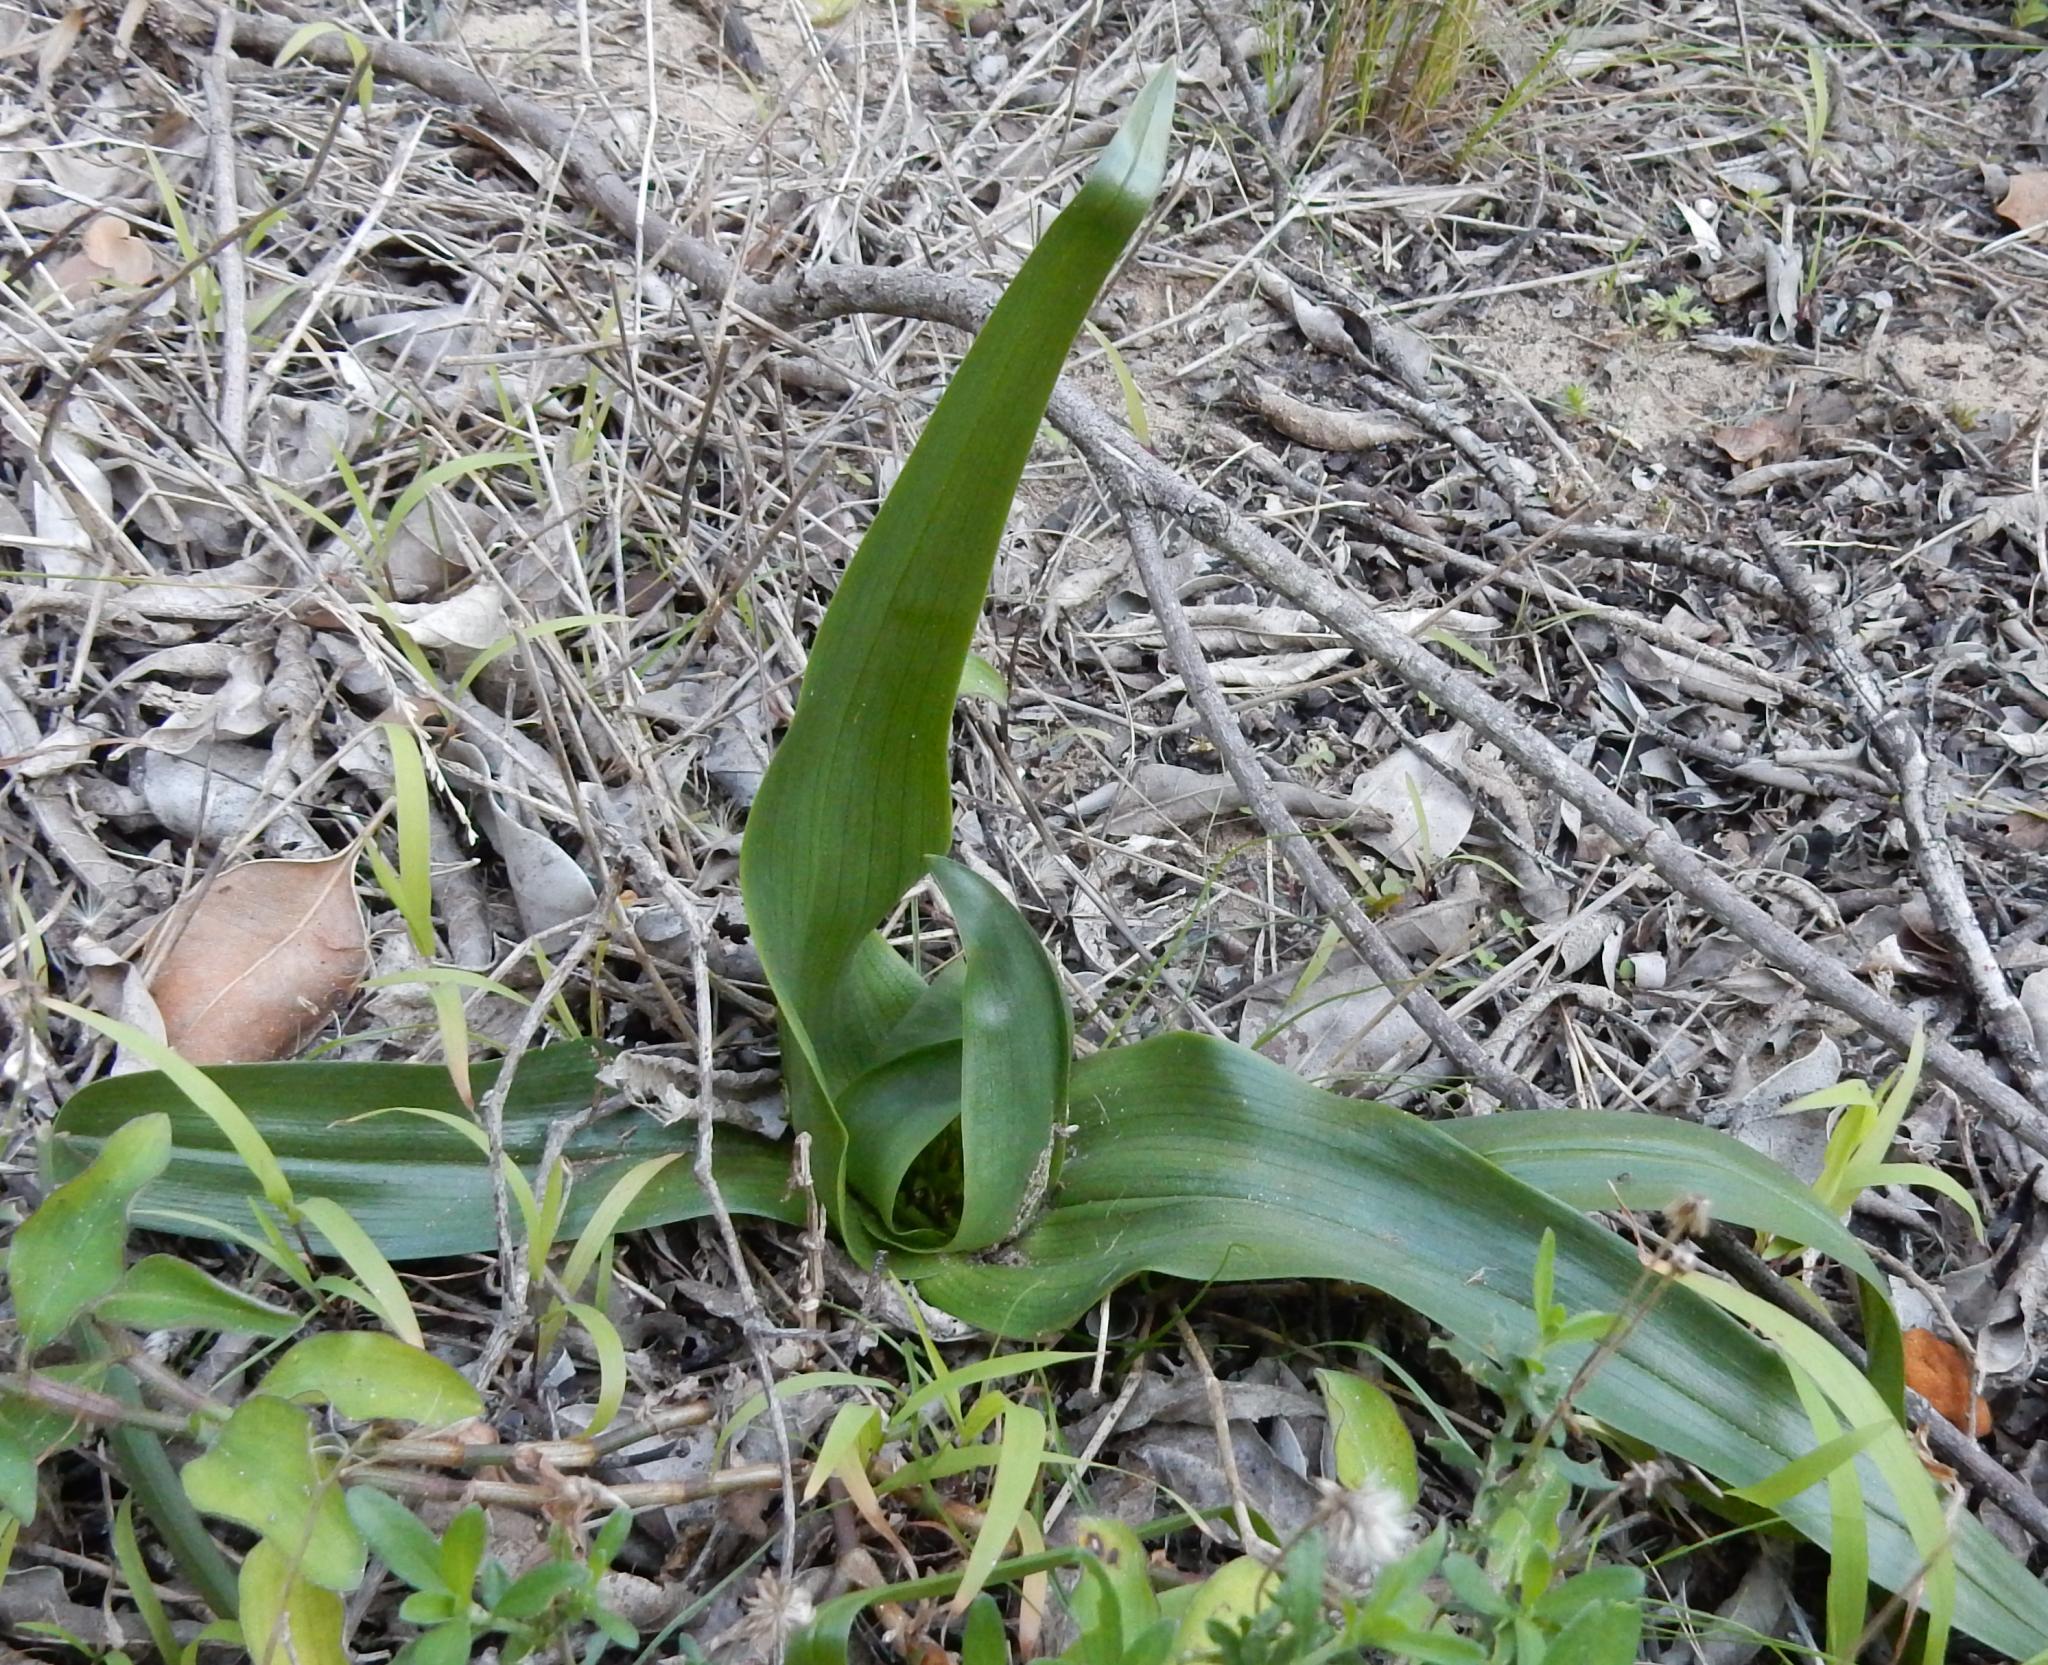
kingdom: Plantae
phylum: Tracheophyta
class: Liliopsida
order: Liliales
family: Colchicaceae
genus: Colchicum
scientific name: Colchicum eucomoides
